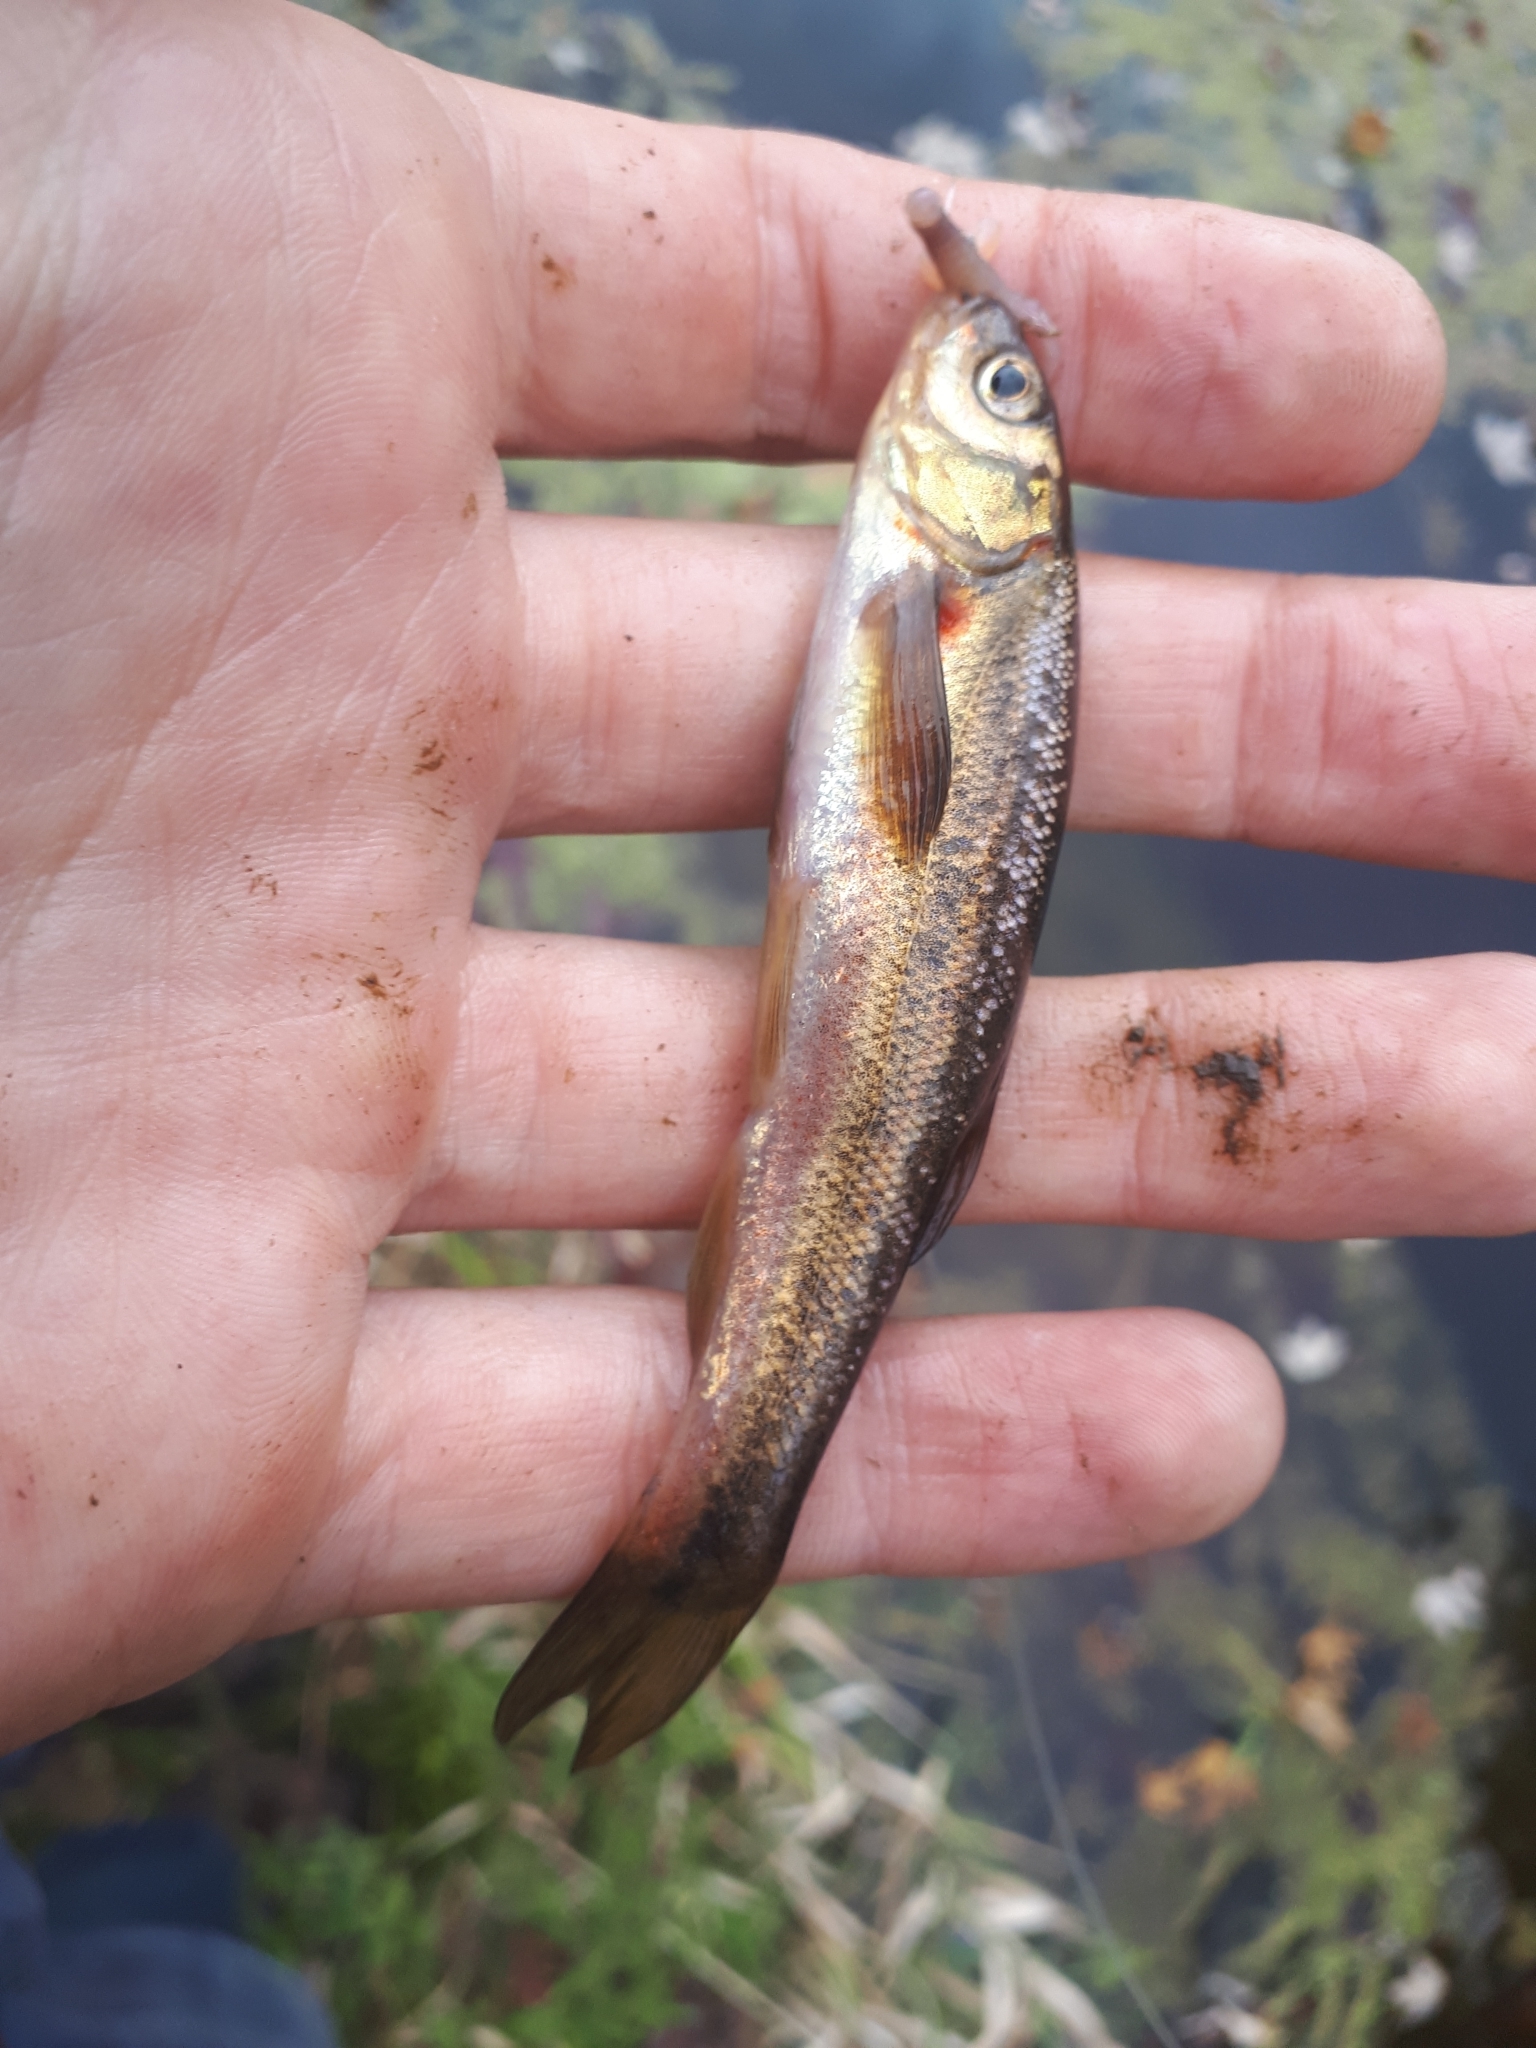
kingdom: Animalia
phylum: Chordata
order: Cypriniformes
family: Cyprinidae
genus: Margariscus
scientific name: Margariscus nachtriebi
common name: Northern pearl dace
